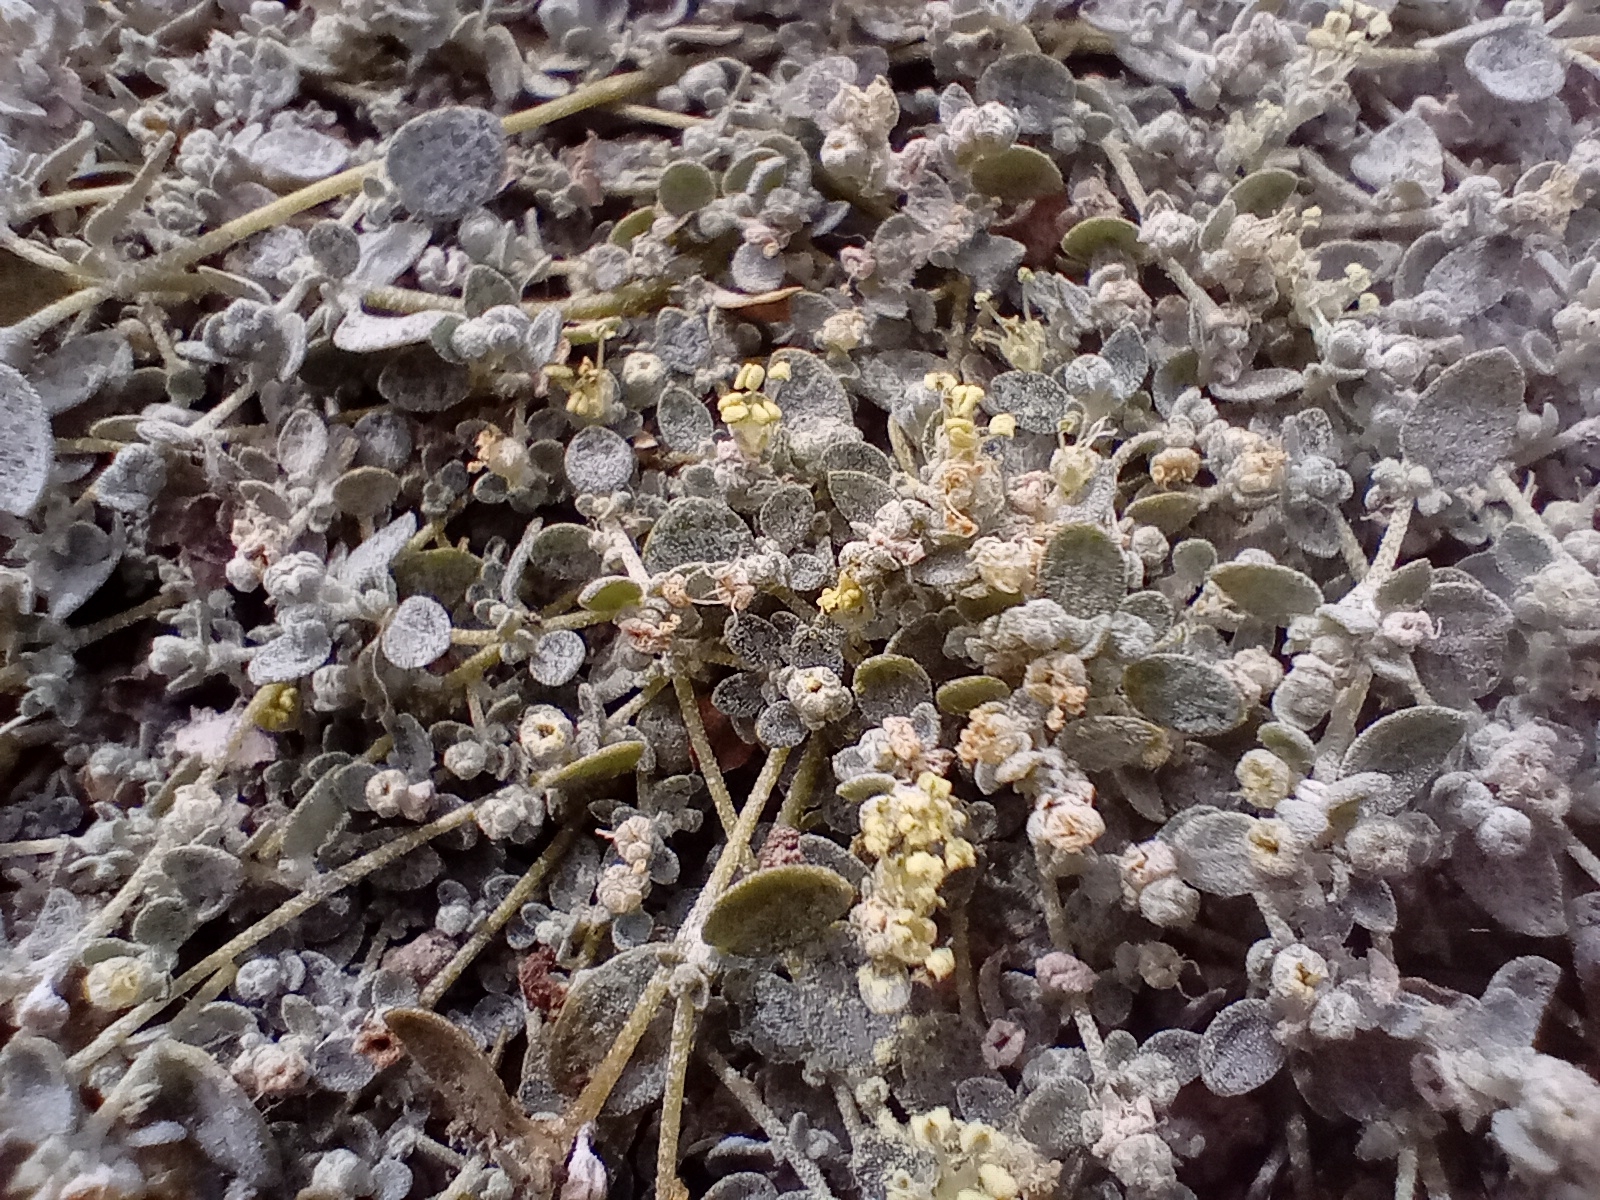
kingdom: Plantae
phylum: Tracheophyta
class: Magnoliopsida
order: Caryophyllales
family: Amaranthaceae
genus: Atriplex
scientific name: Atriplex buchananii
